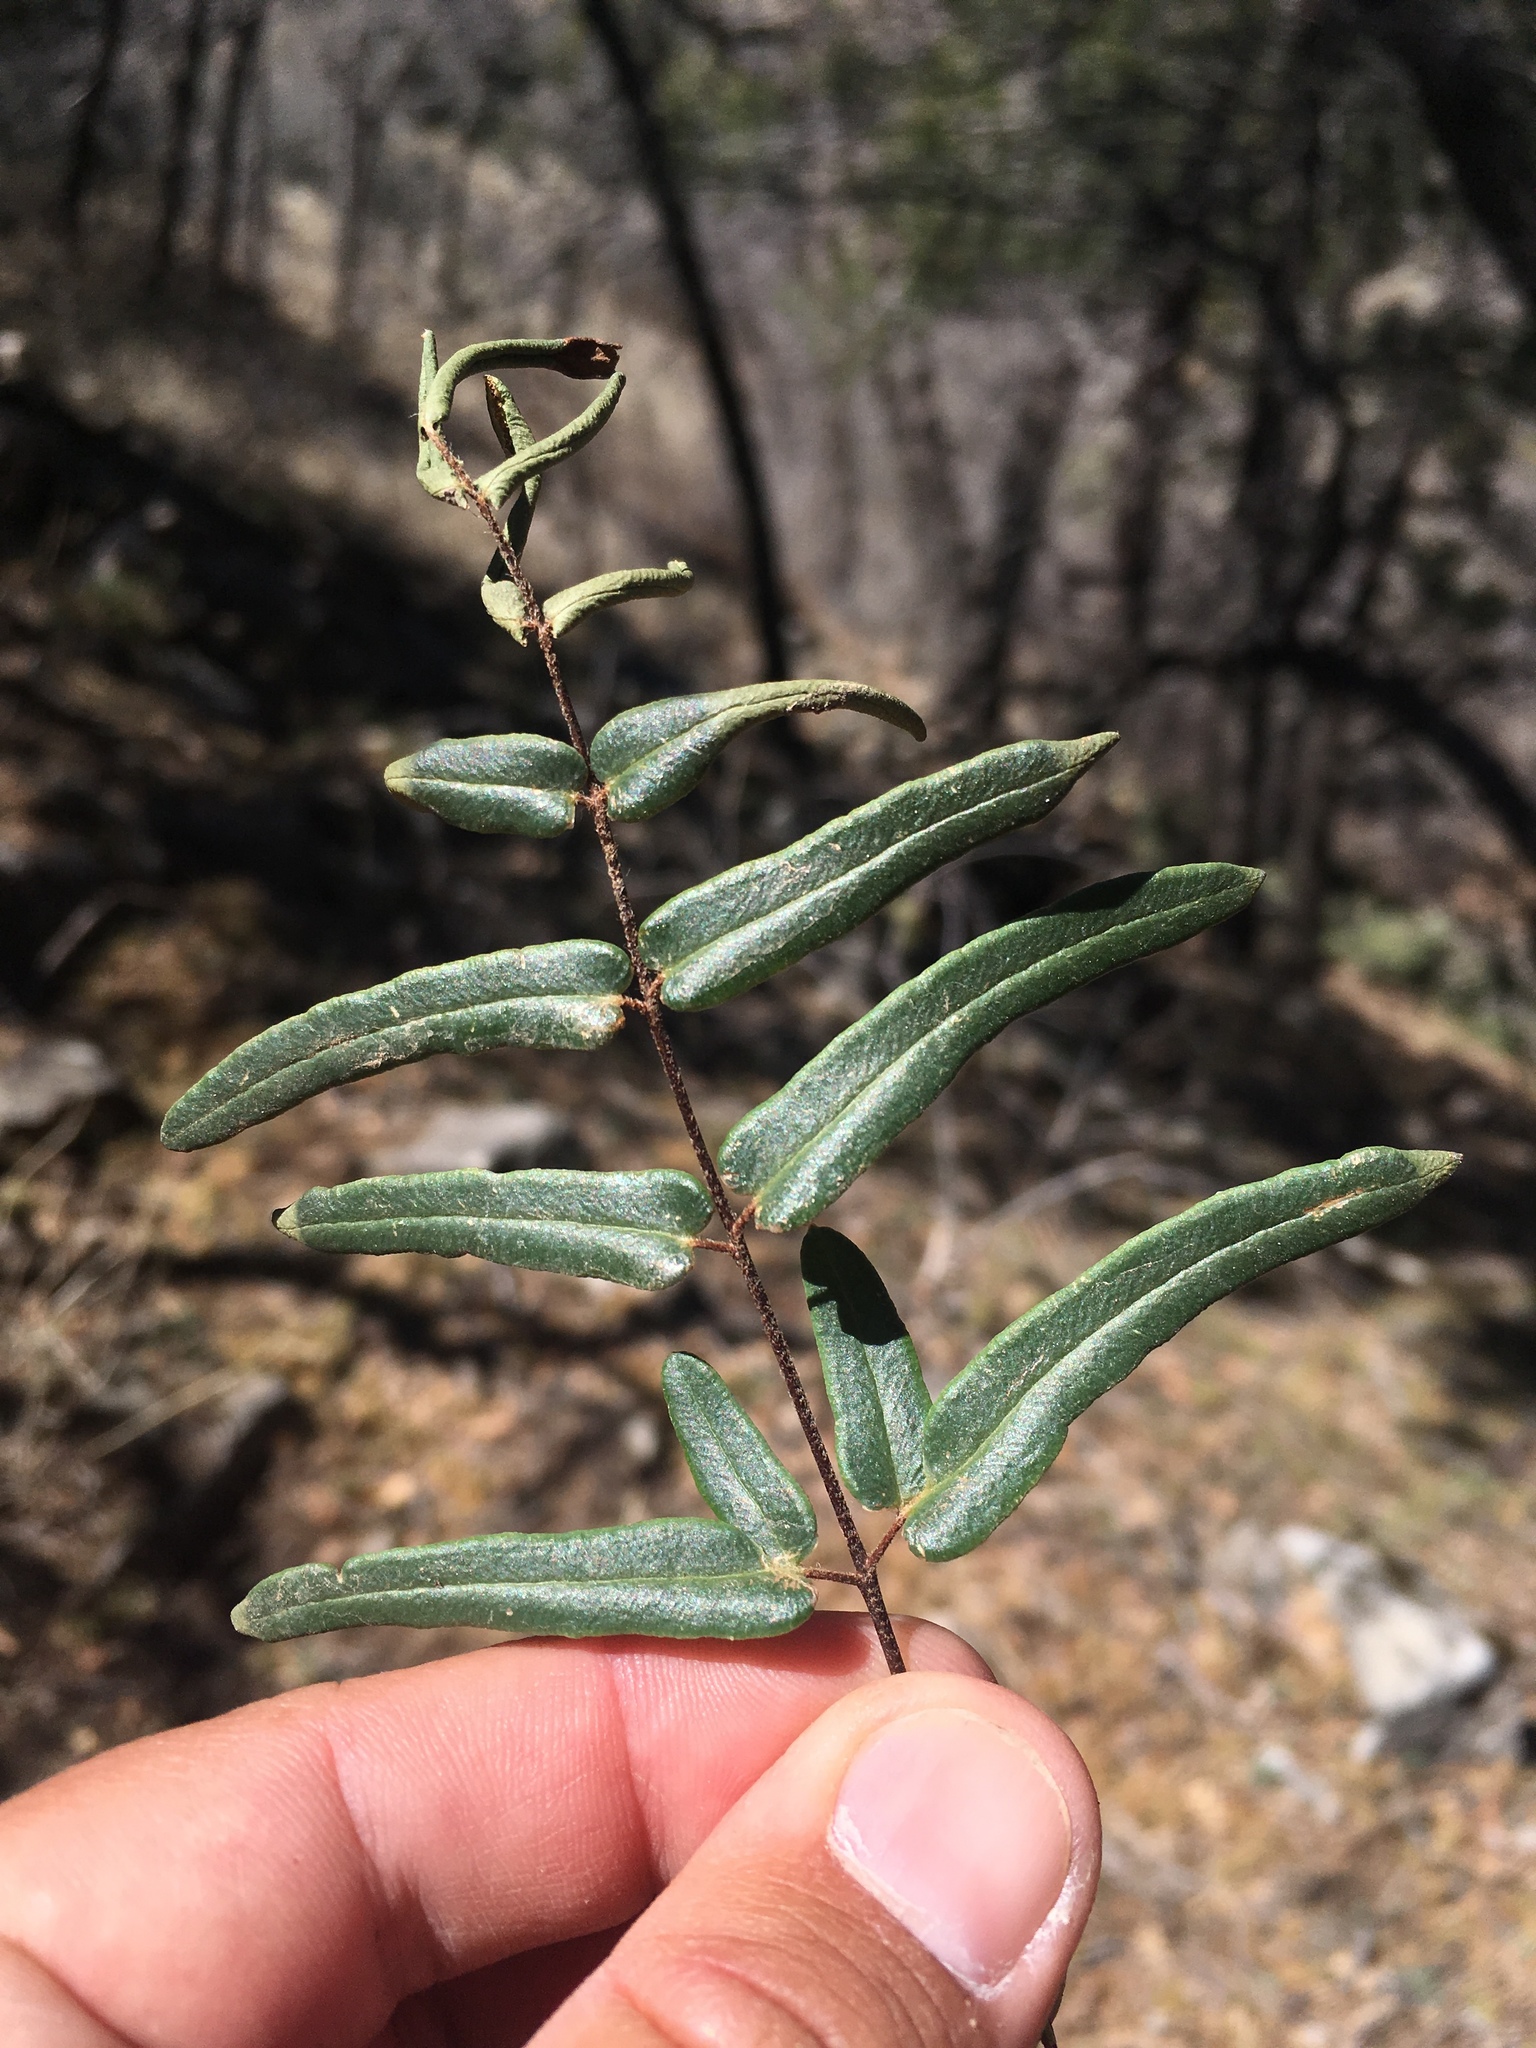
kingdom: Plantae
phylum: Tracheophyta
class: Polypodiopsida
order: Polypodiales
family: Pteridaceae
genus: Pellaea
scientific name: Pellaea atropurpurea
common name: Hairy cliffbrake
